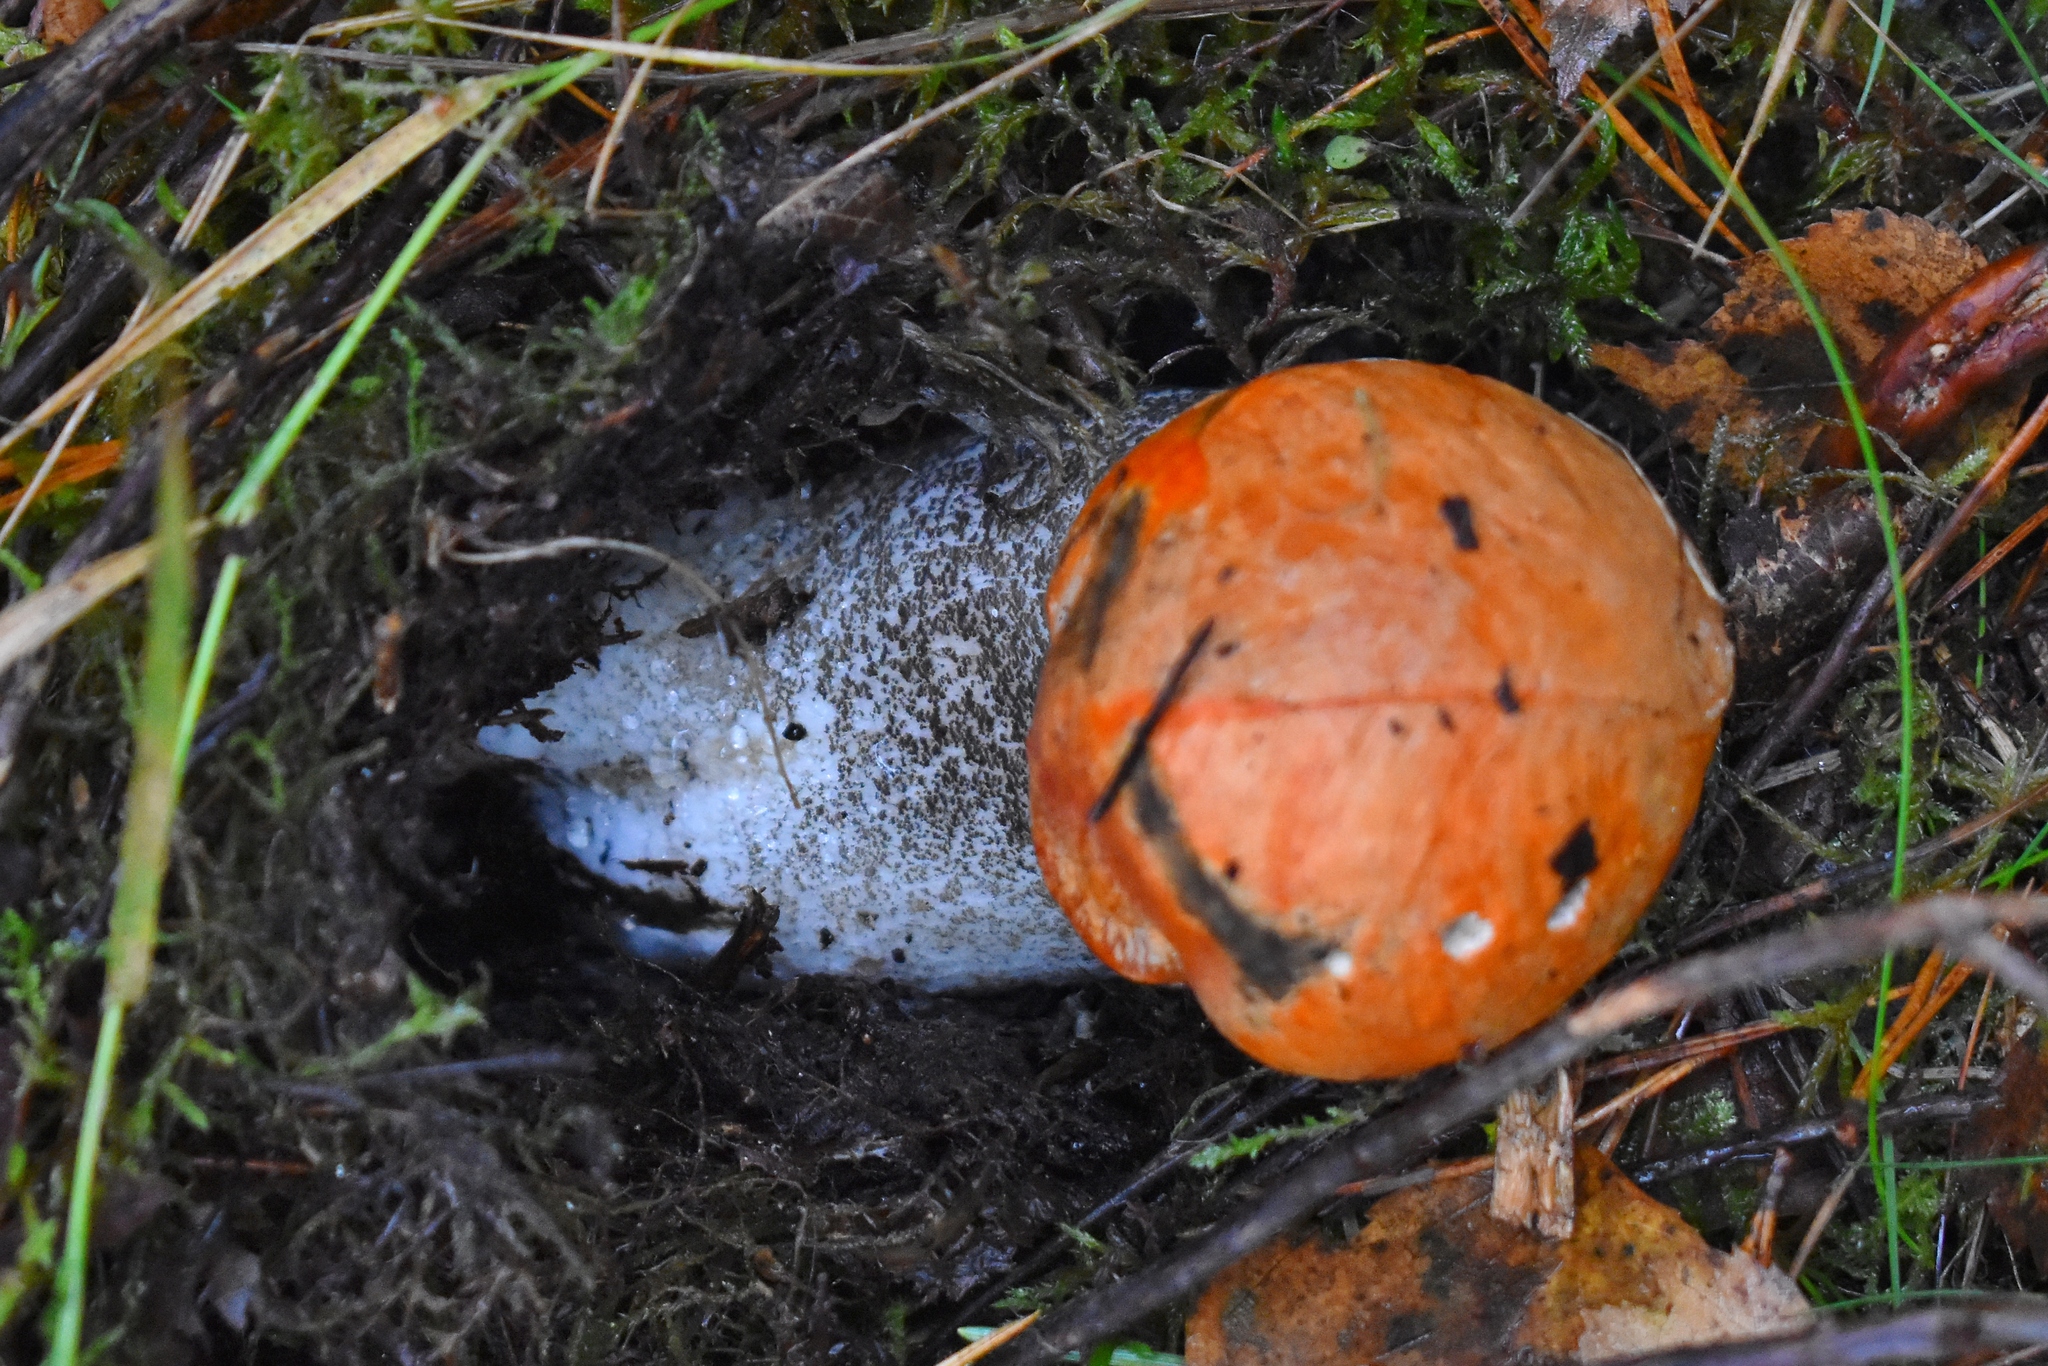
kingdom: Fungi
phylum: Basidiomycota
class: Agaricomycetes
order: Boletales
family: Boletaceae
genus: Leccinum
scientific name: Leccinum versipelle
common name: Orange birch bolete
